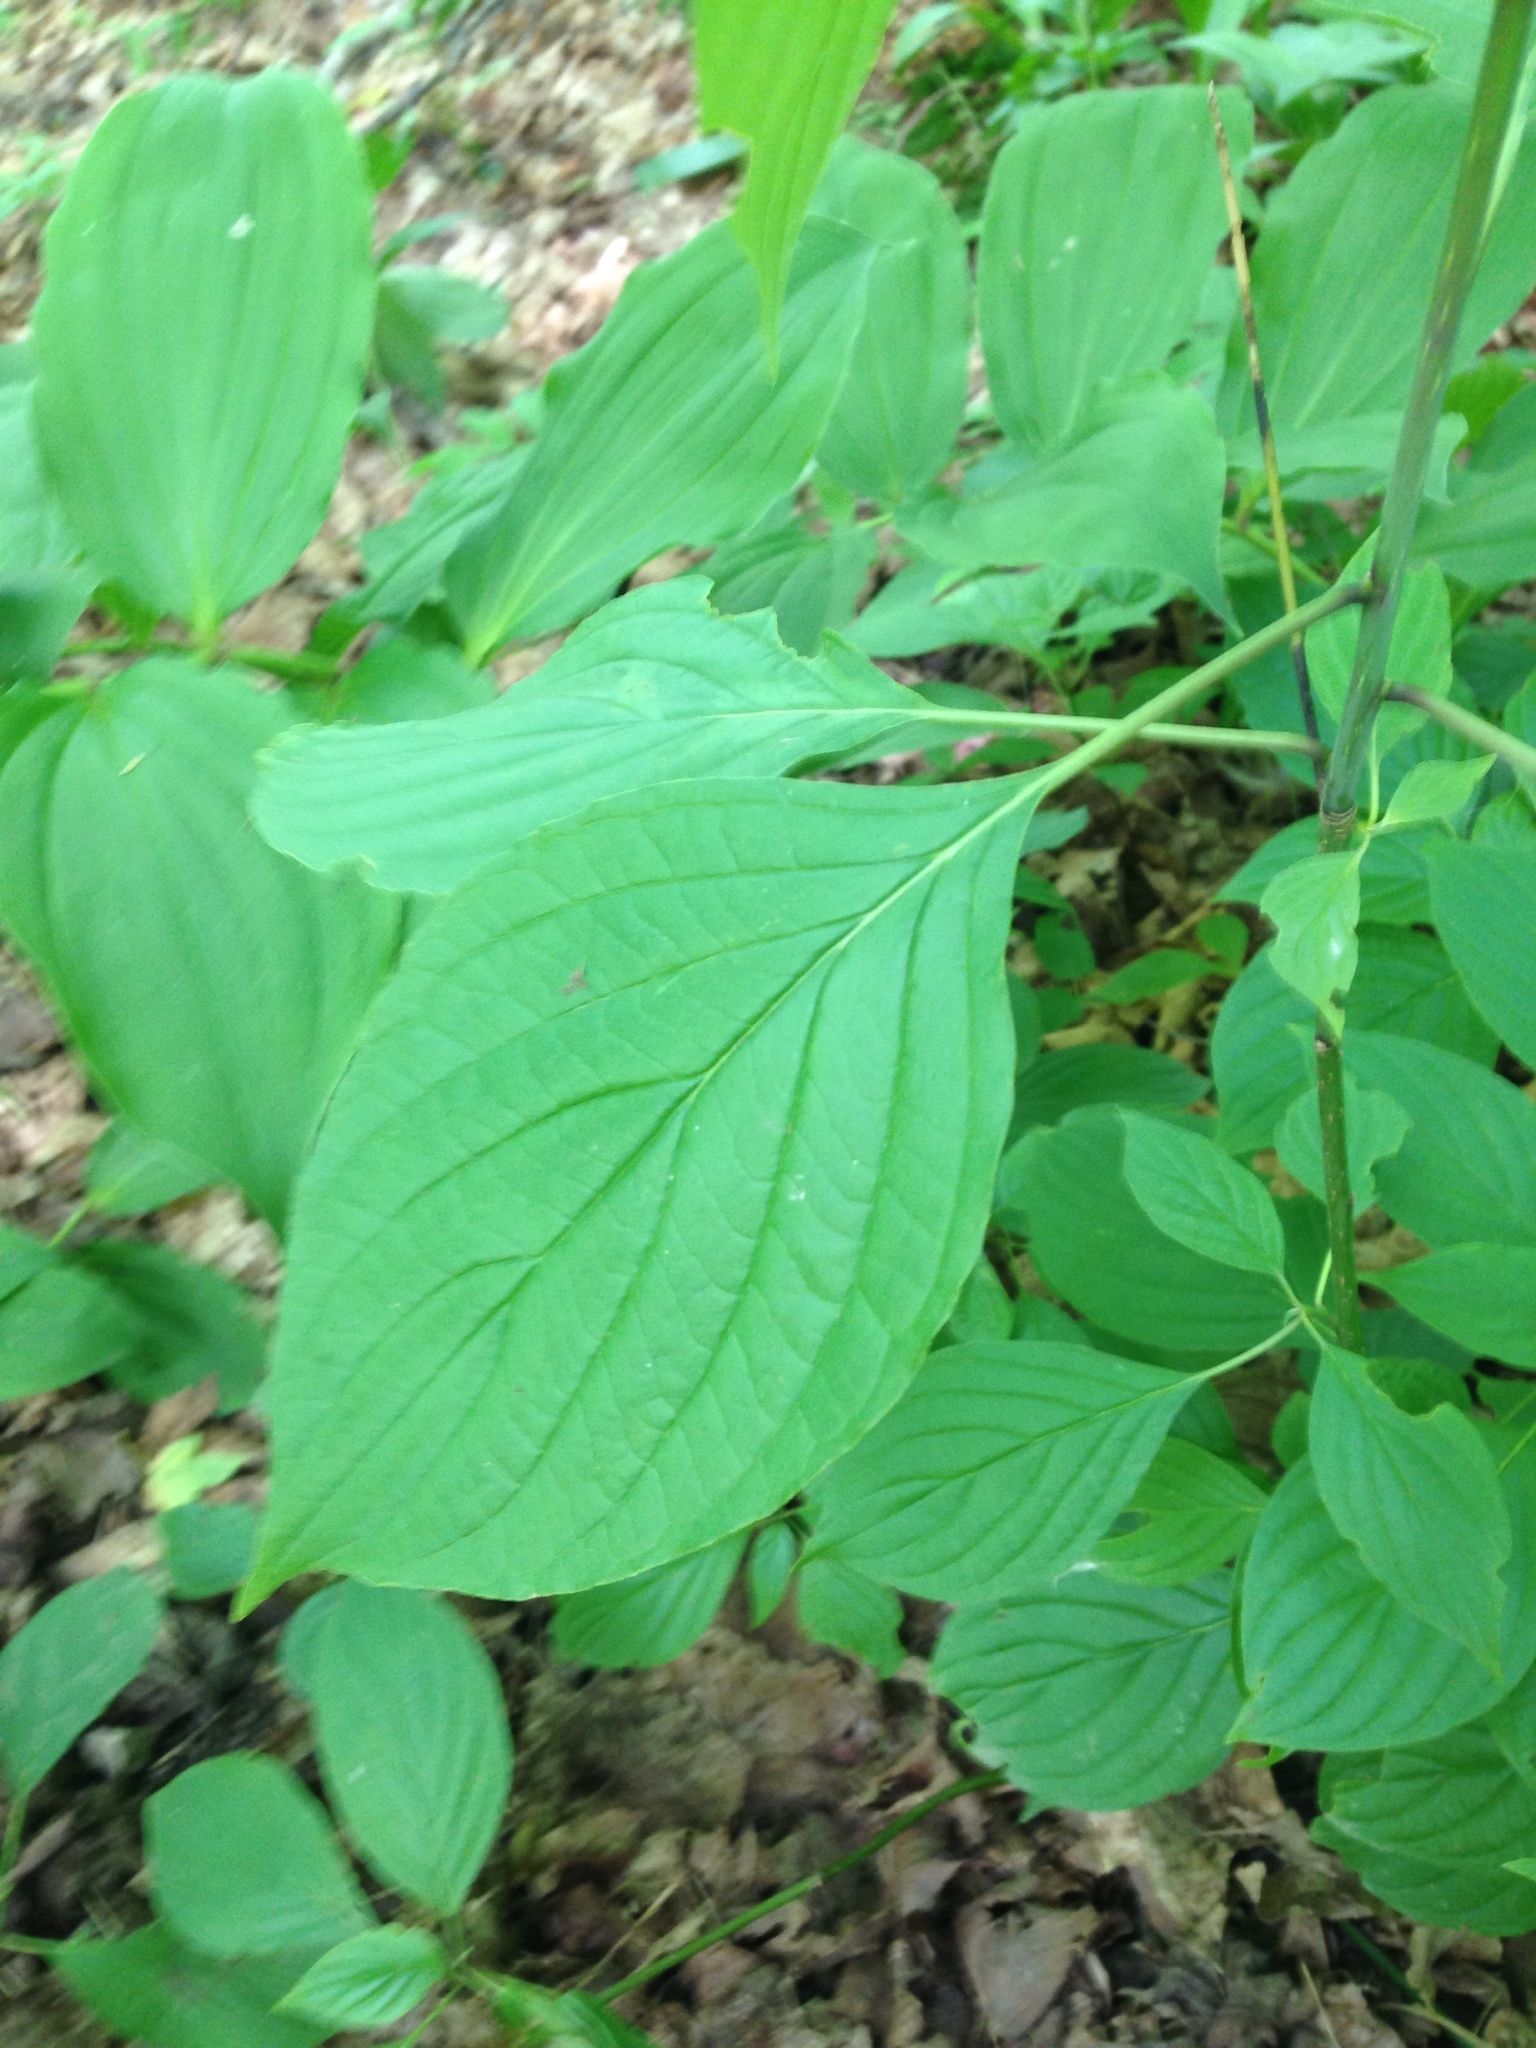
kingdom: Plantae
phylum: Tracheophyta
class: Magnoliopsida
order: Cornales
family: Cornaceae
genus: Cornus
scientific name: Cornus alternifolia
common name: Pagoda dogwood
